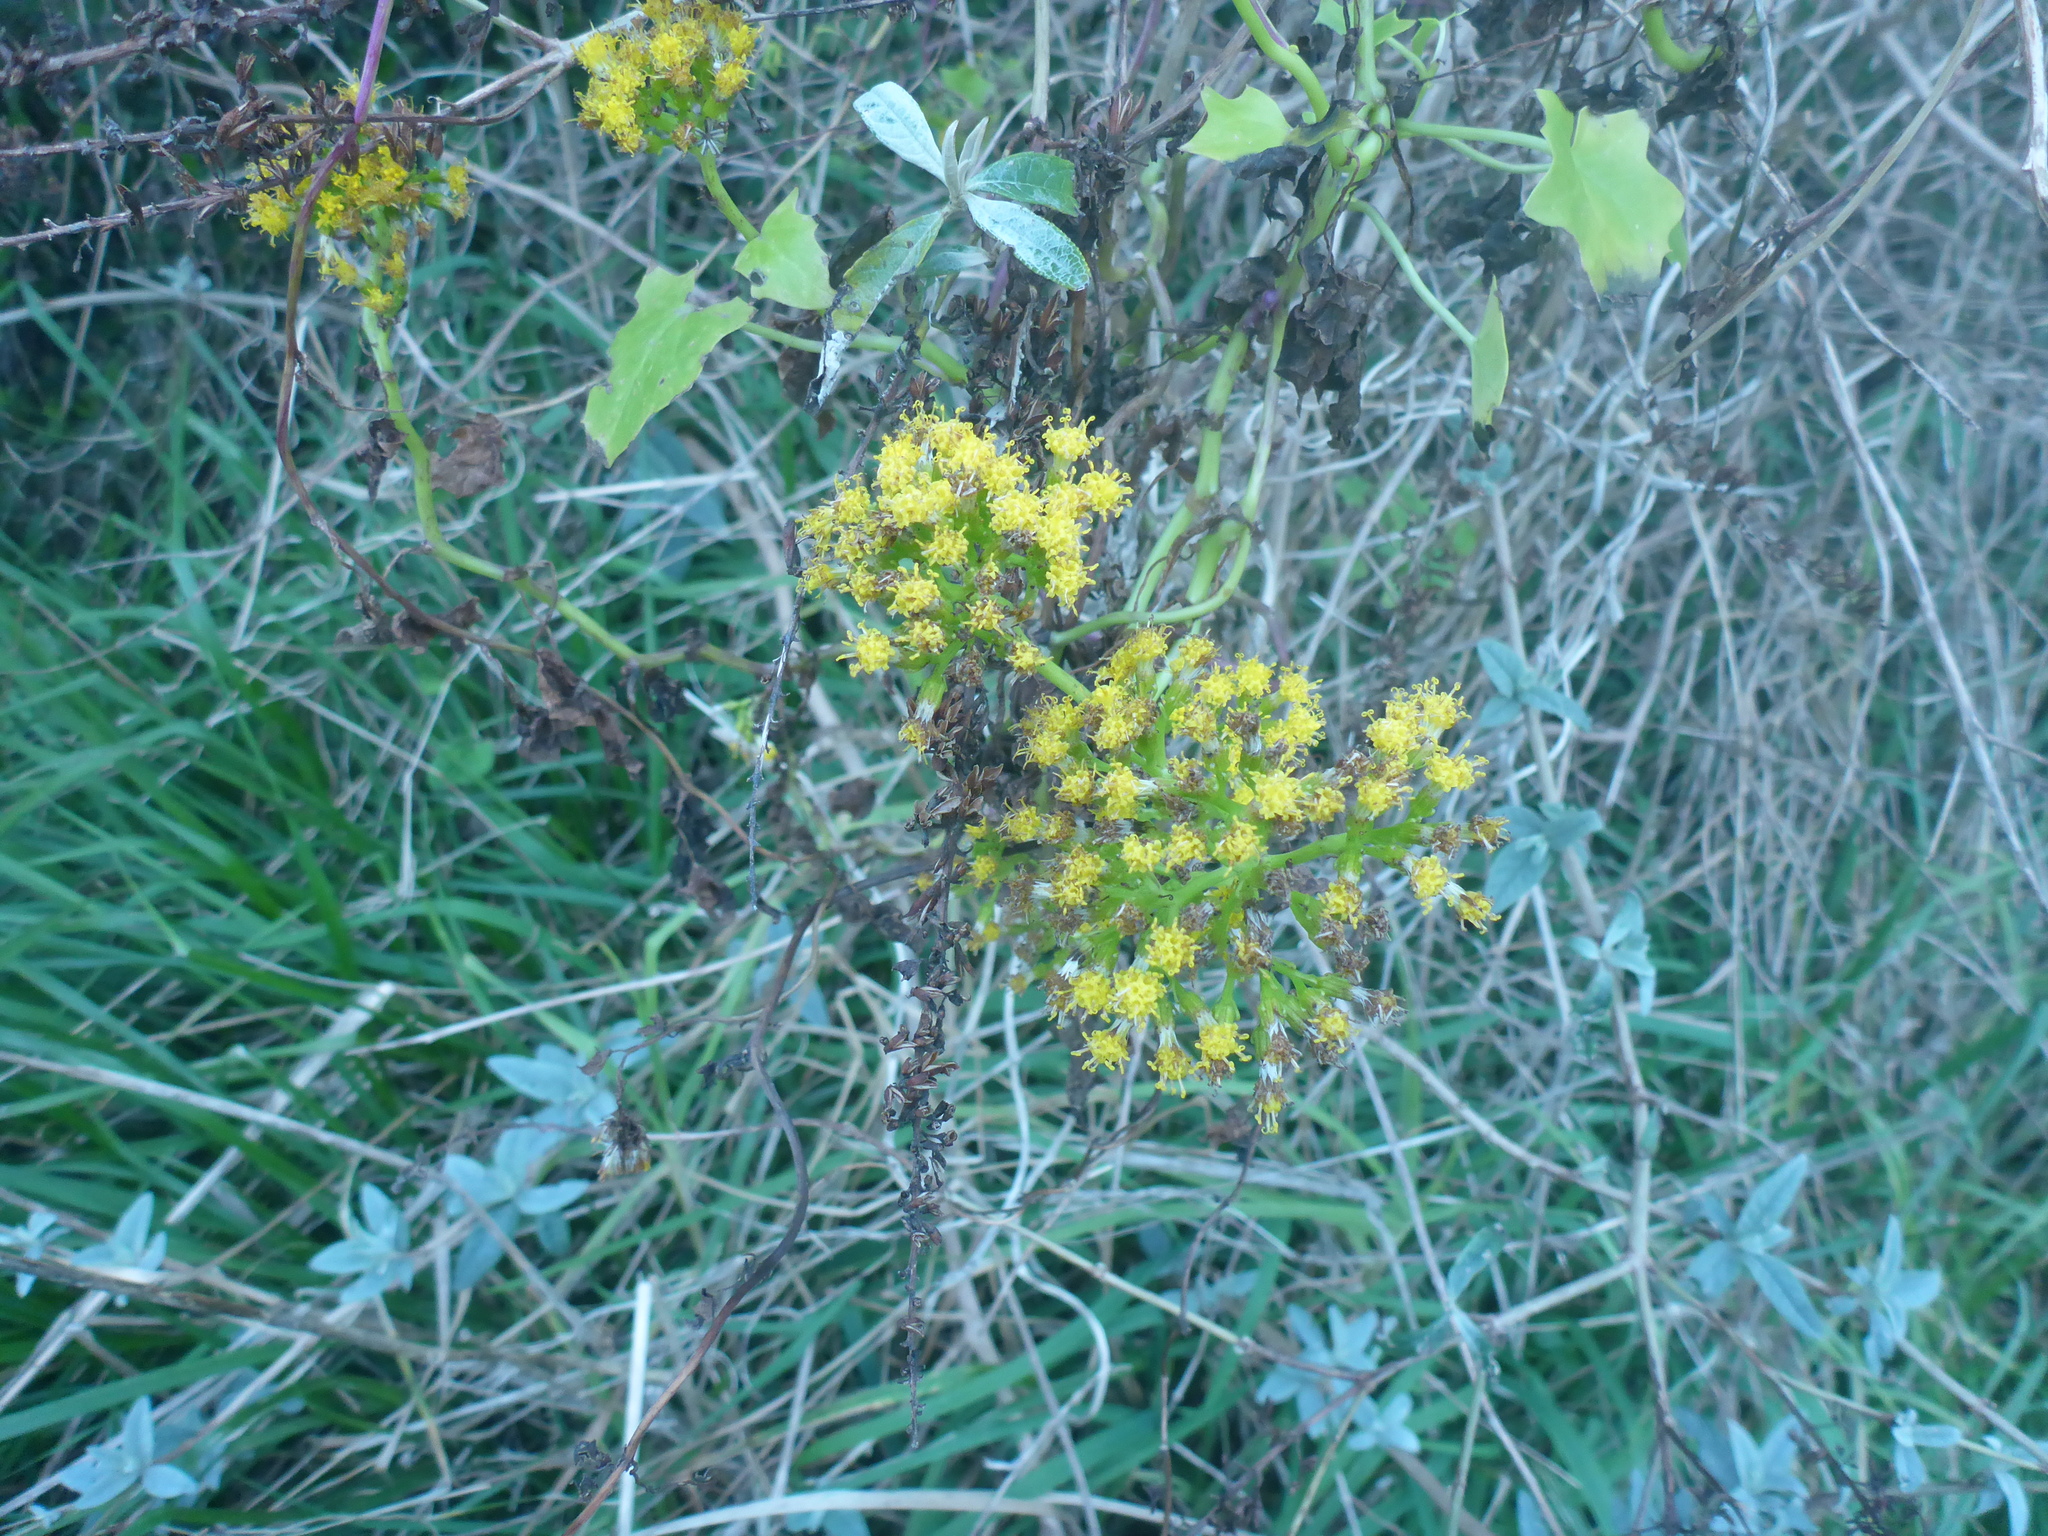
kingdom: Plantae
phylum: Tracheophyta
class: Magnoliopsida
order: Asterales
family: Asteraceae
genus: Delairea
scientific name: Delairea odorata
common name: Cape-ivy
